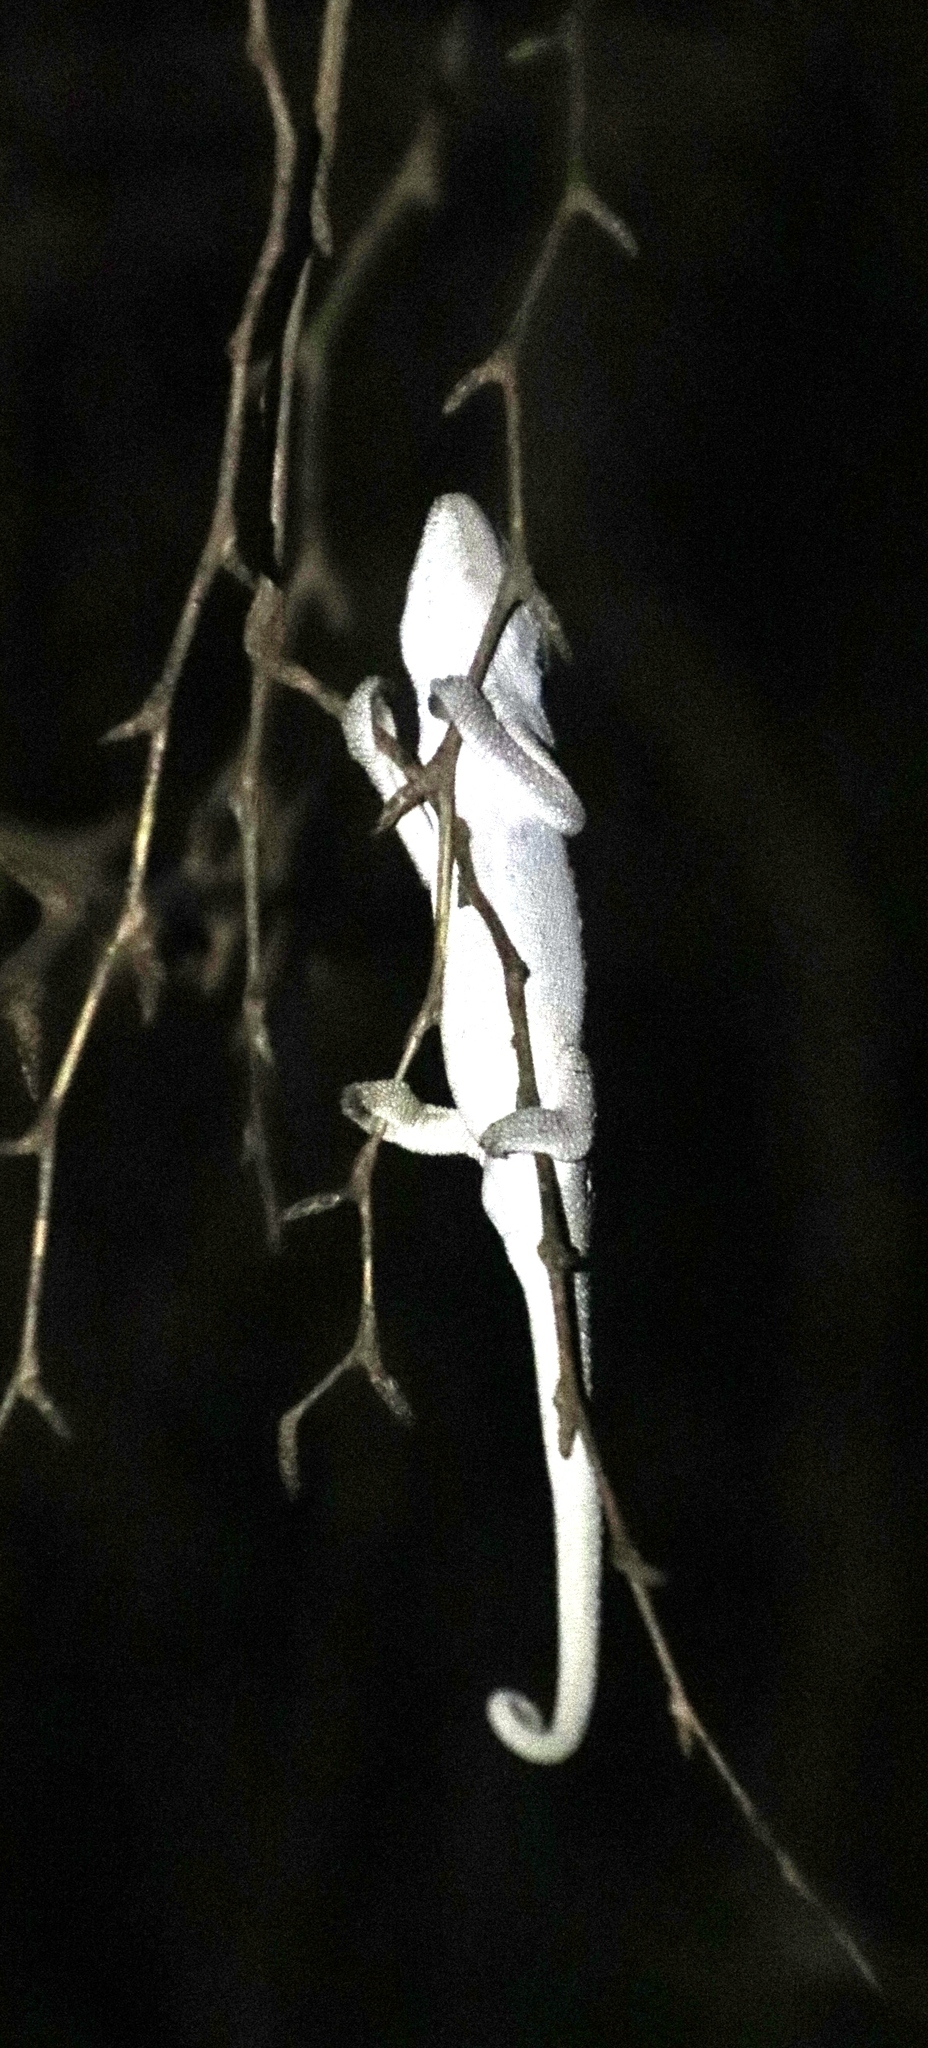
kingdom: Animalia
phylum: Chordata
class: Squamata
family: Chamaeleonidae
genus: Bradypodion
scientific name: Bradypodion pumilum
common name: Cape dwarf chameleon
